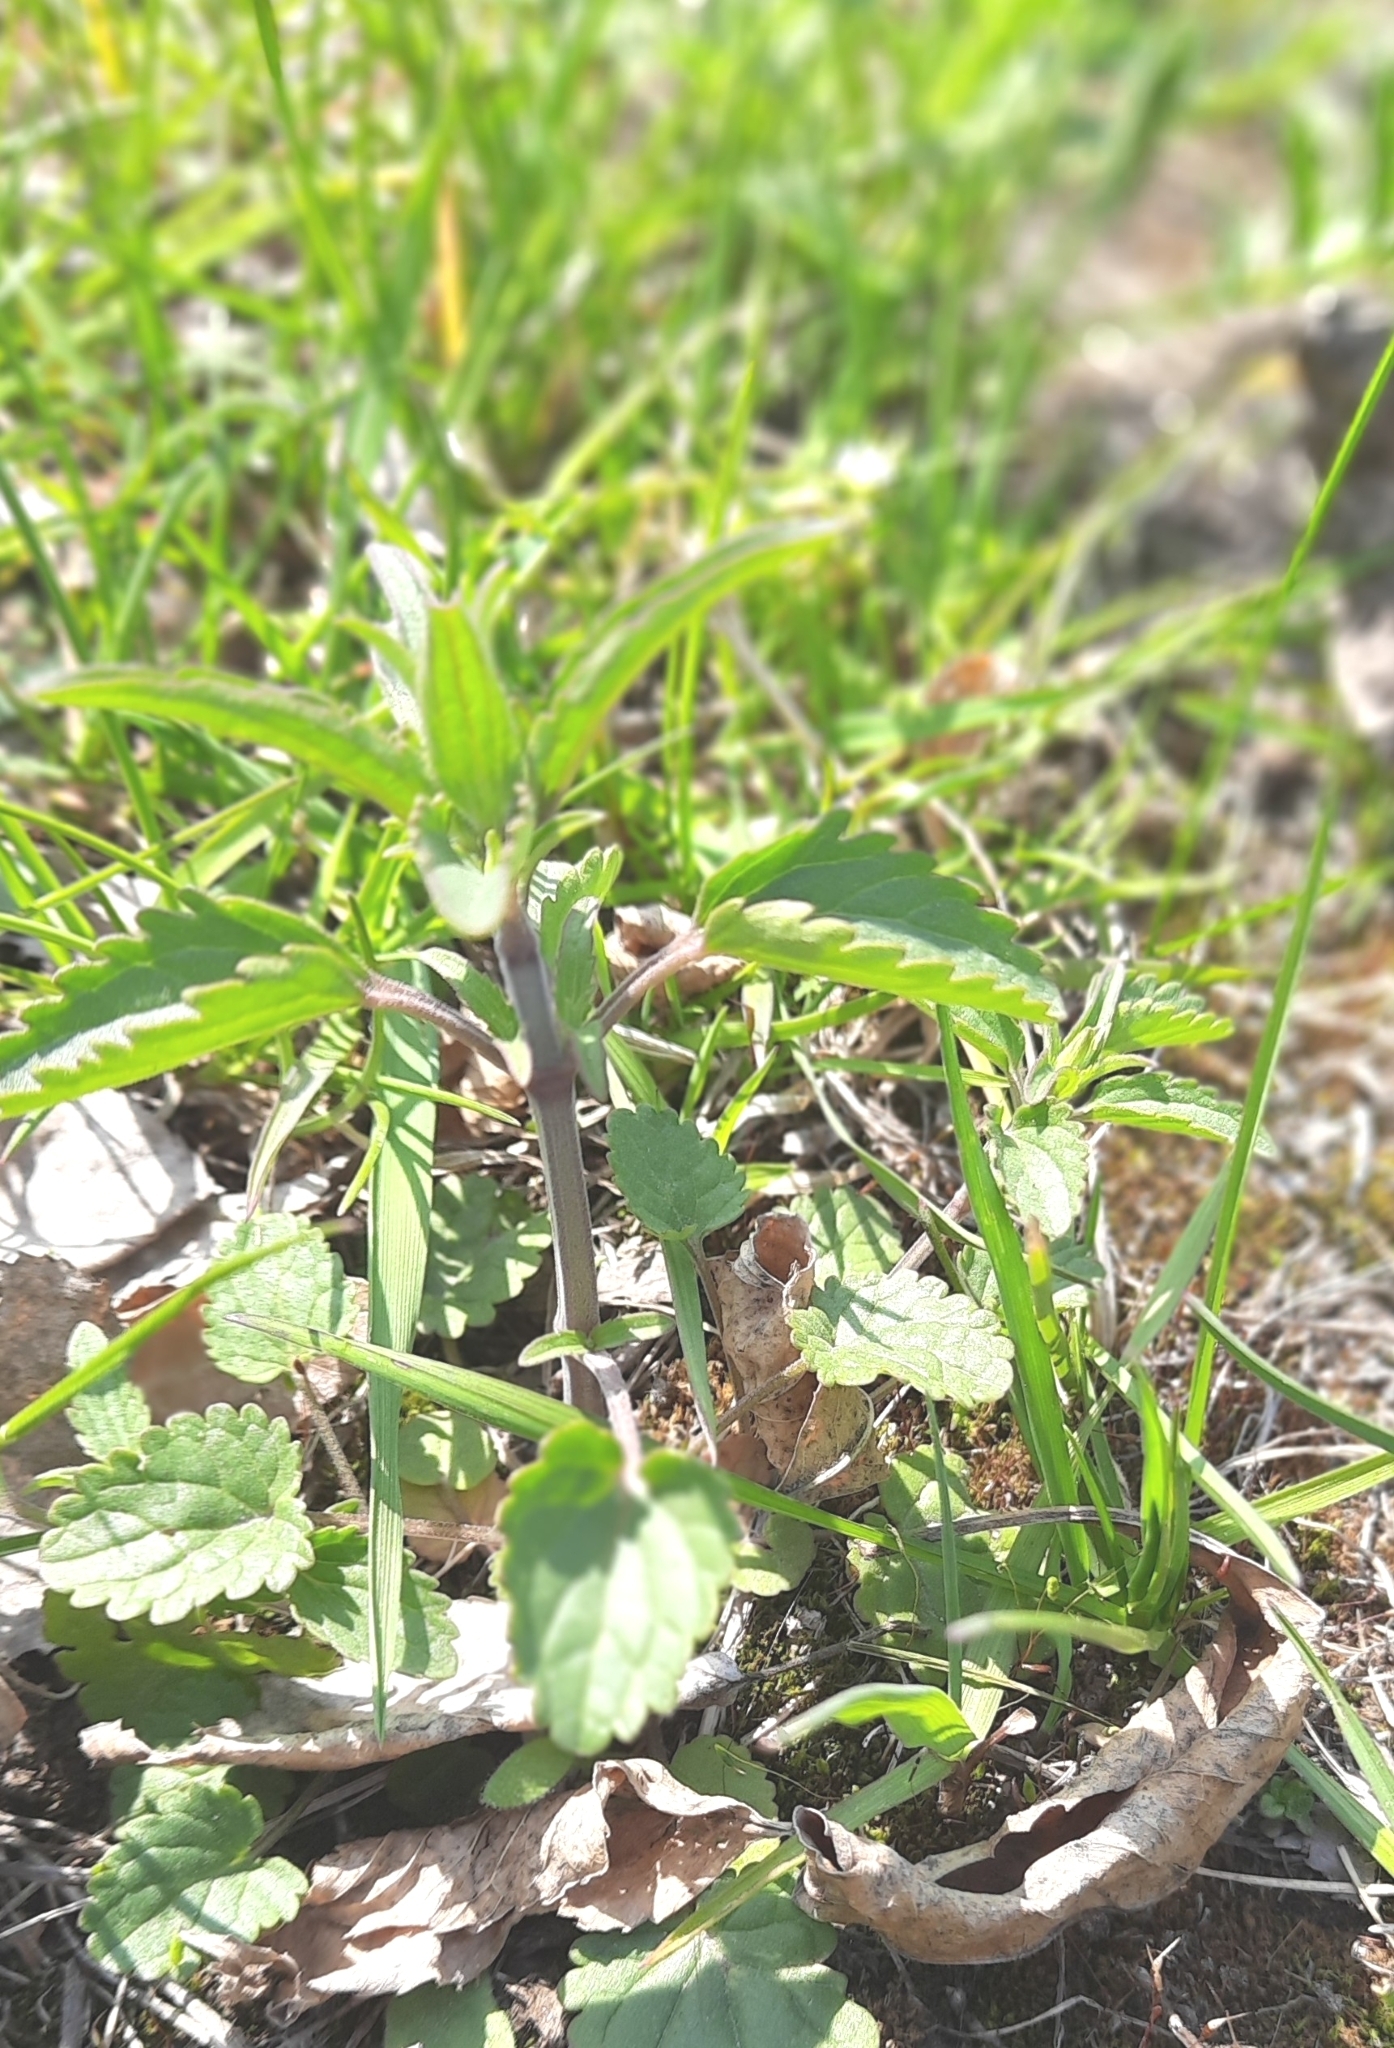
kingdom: Plantae
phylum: Tracheophyta
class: Magnoliopsida
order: Lamiales
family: Lamiaceae
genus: Dracocephalum
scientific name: Dracocephalum thymiflorum
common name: Thymeleaf dragonhead
